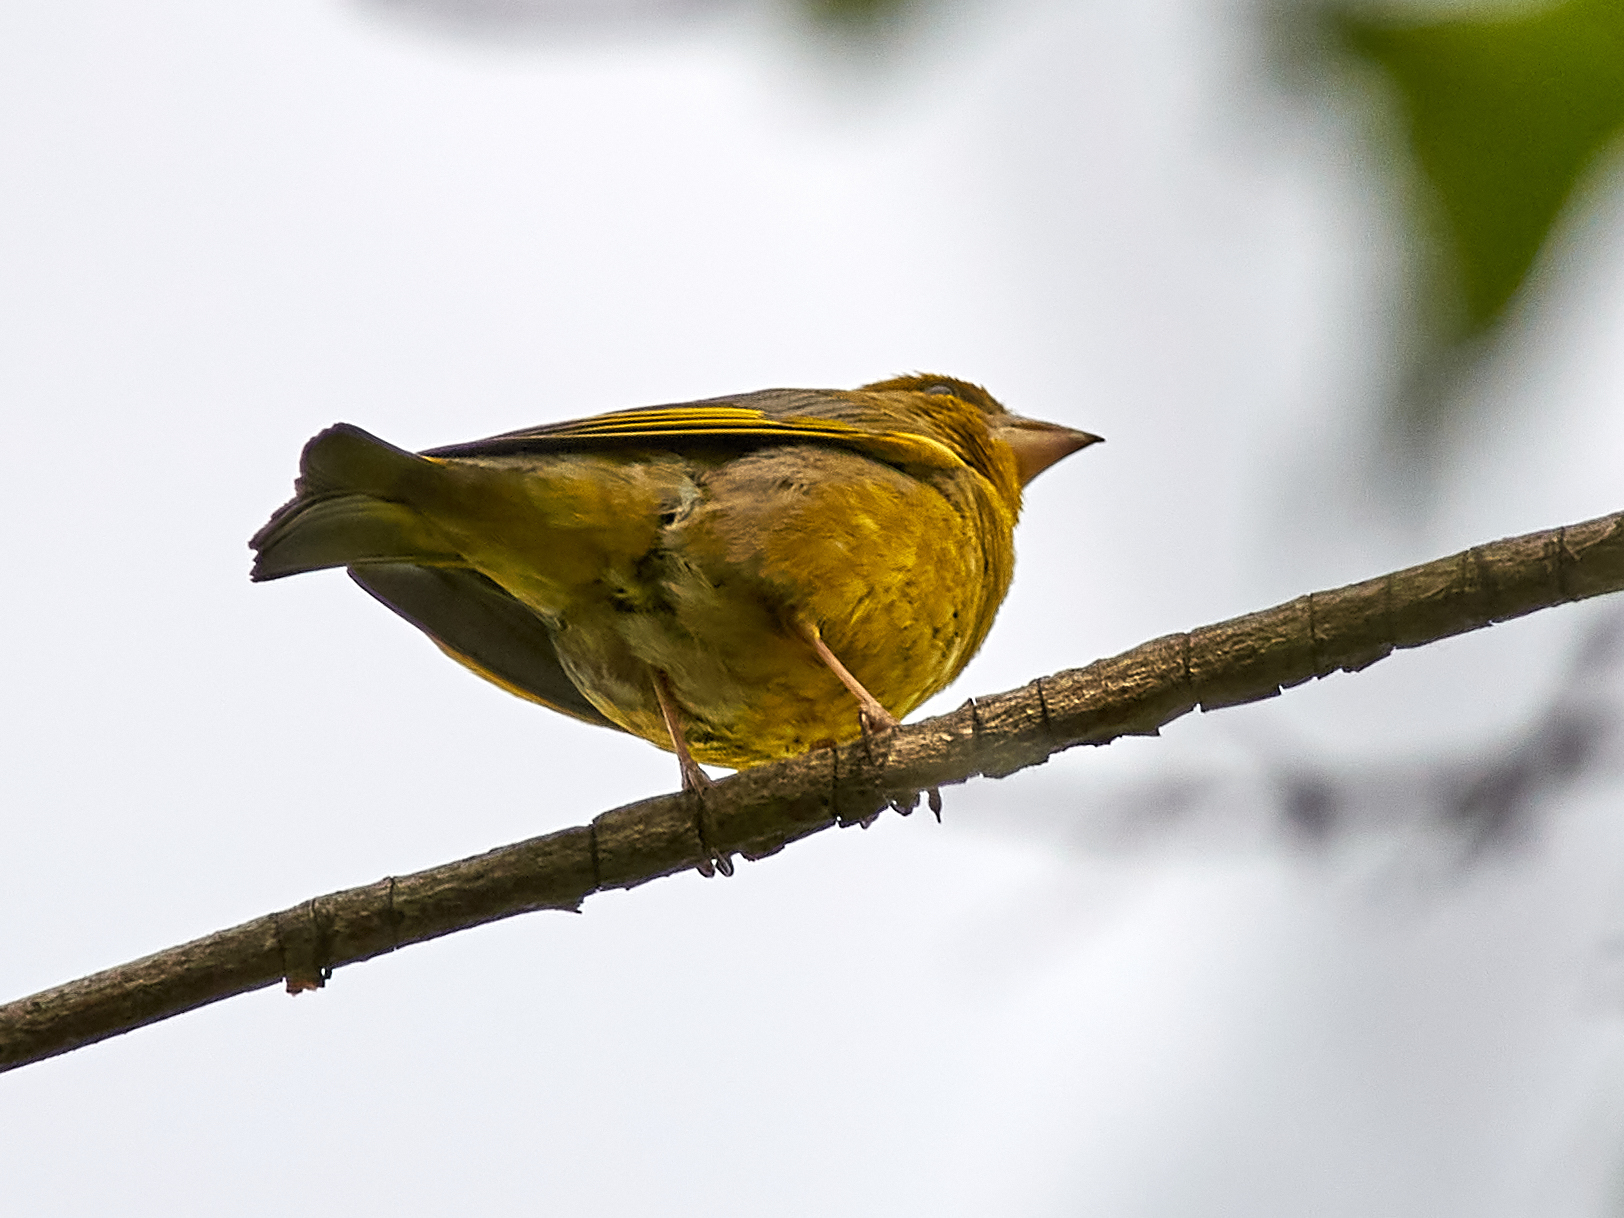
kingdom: Plantae
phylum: Tracheophyta
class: Liliopsida
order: Poales
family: Poaceae
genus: Chloris
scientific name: Chloris chloris
